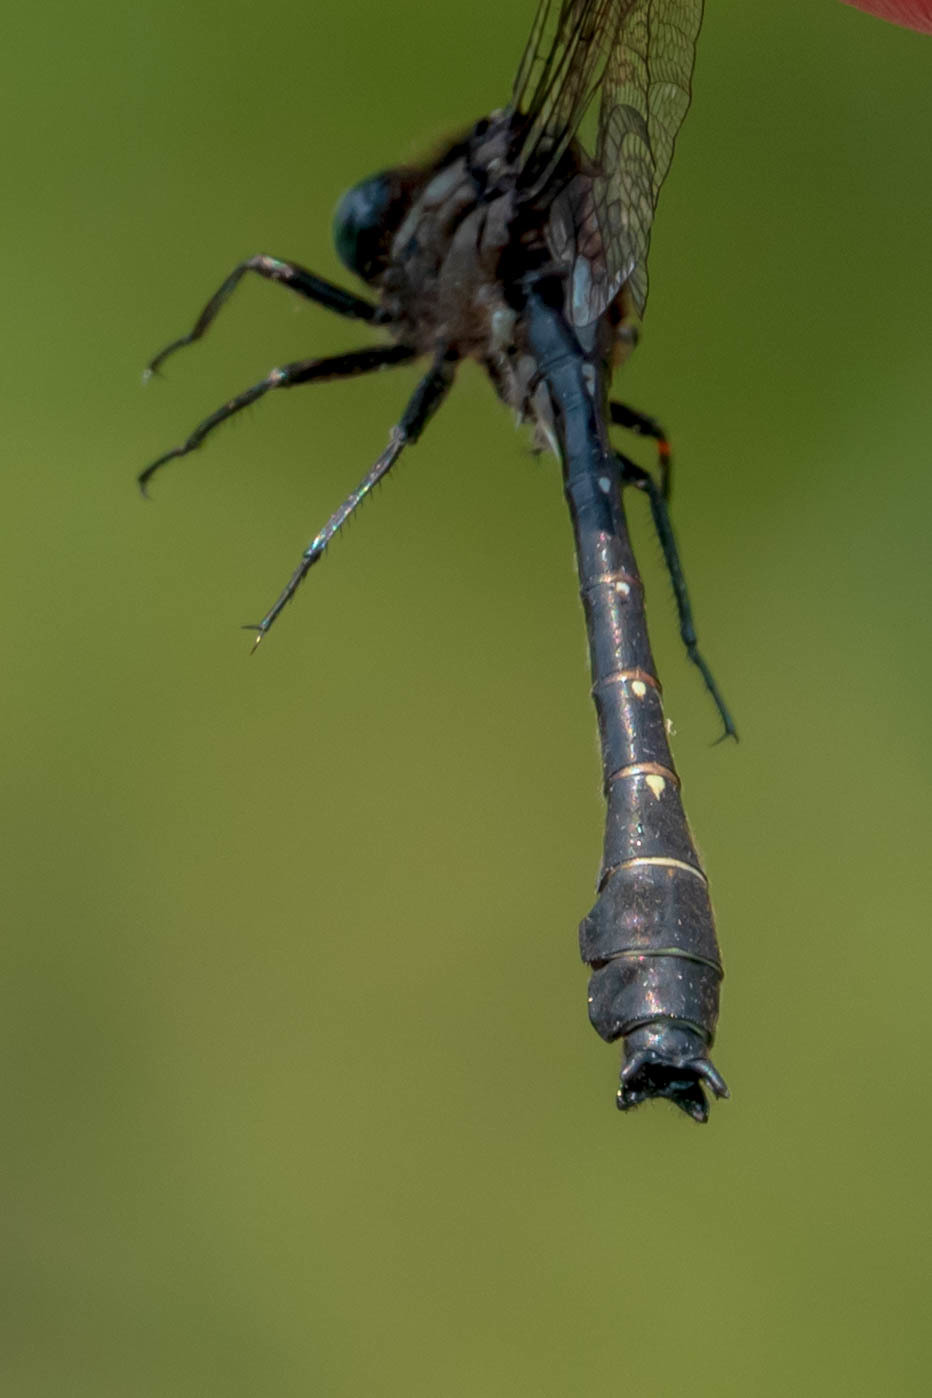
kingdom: Animalia
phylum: Arthropoda
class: Insecta
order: Odonata
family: Gomphidae
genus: Hylogomphus
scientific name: Hylogomphus adelphus
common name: Mustached clubtail
